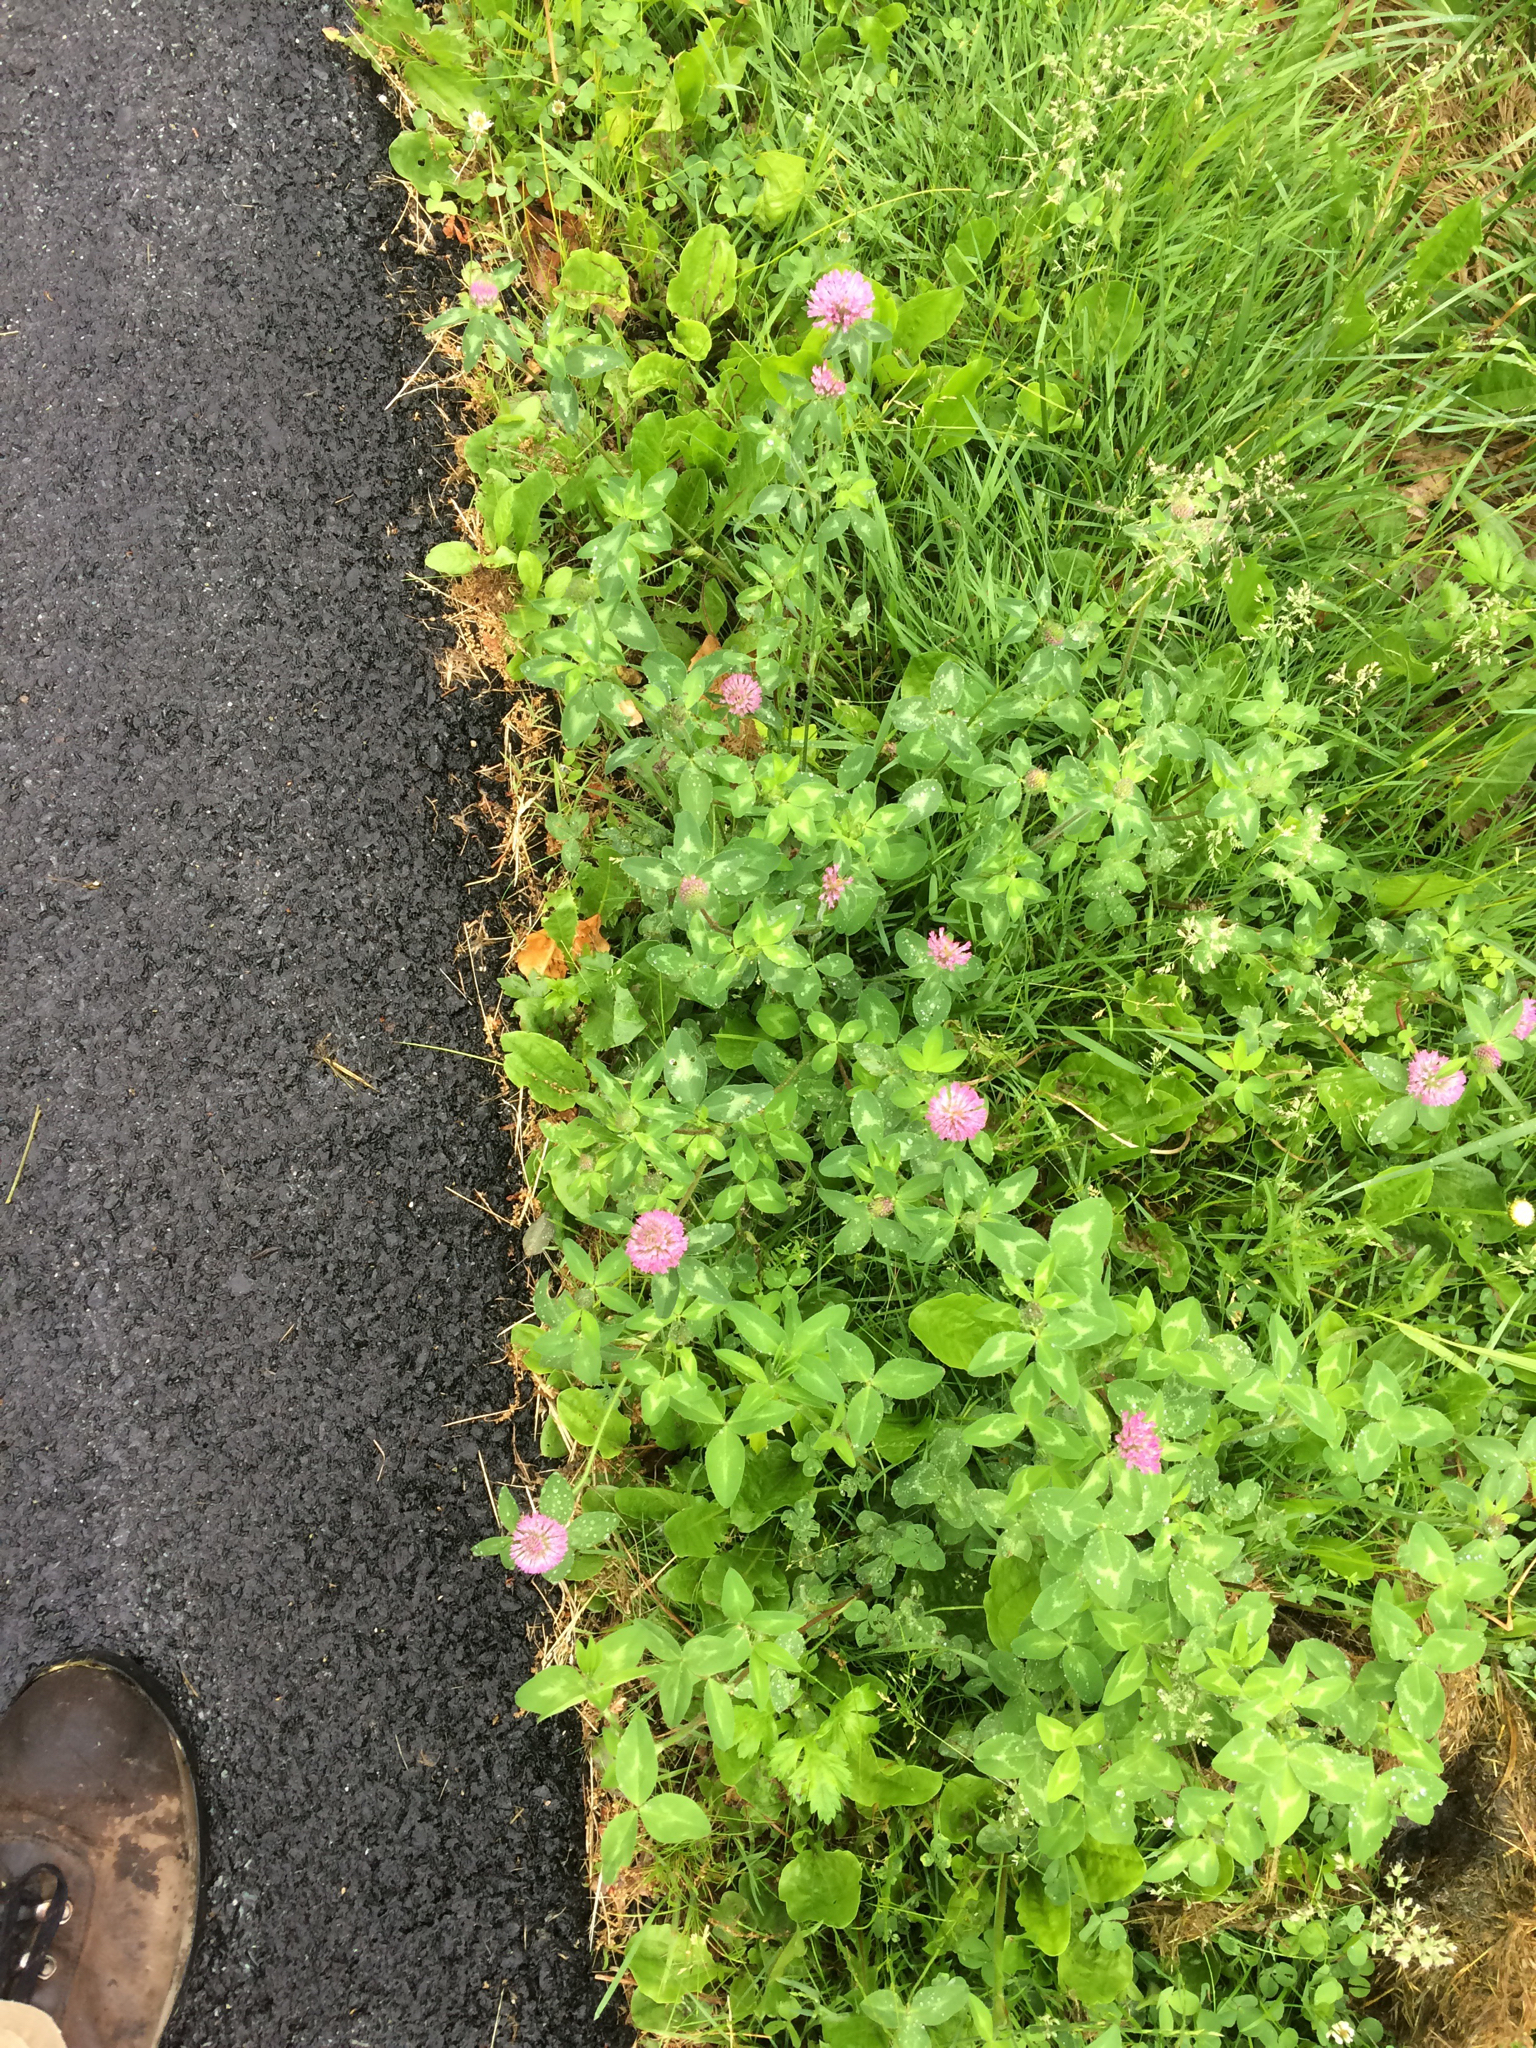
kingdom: Plantae
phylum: Tracheophyta
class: Magnoliopsida
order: Fabales
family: Fabaceae
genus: Trifolium
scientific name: Trifolium pratense
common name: Red clover
